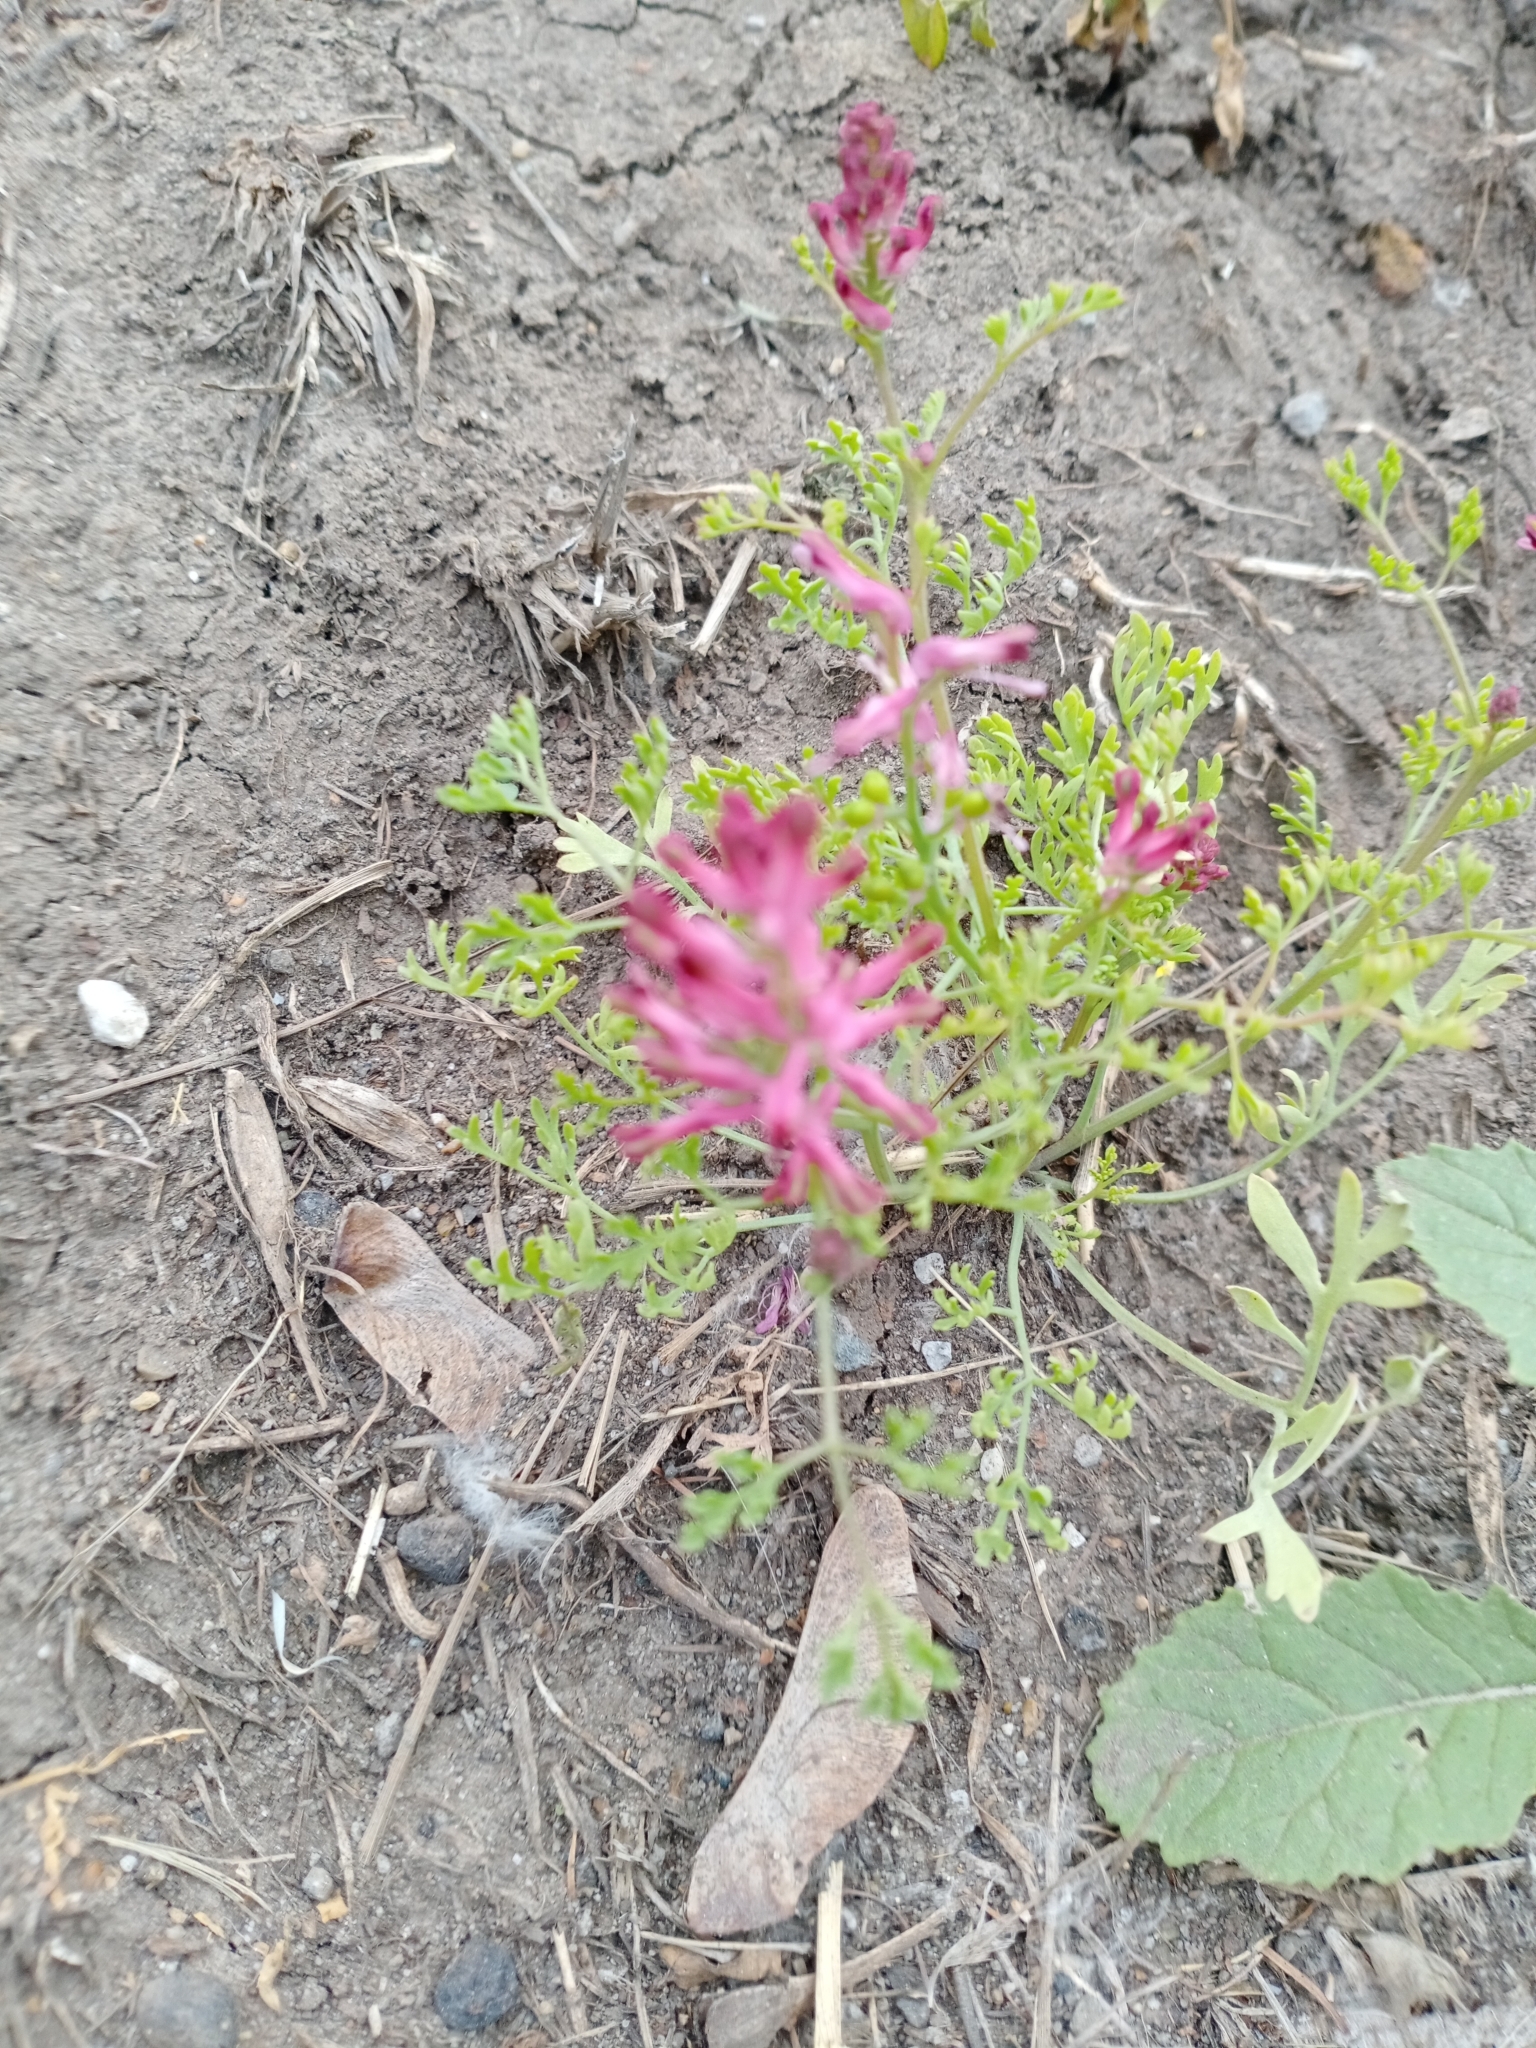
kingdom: Plantae
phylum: Tracheophyta
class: Magnoliopsida
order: Ranunculales
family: Papaveraceae
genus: Fumaria
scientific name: Fumaria officinalis
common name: Common fumitory
